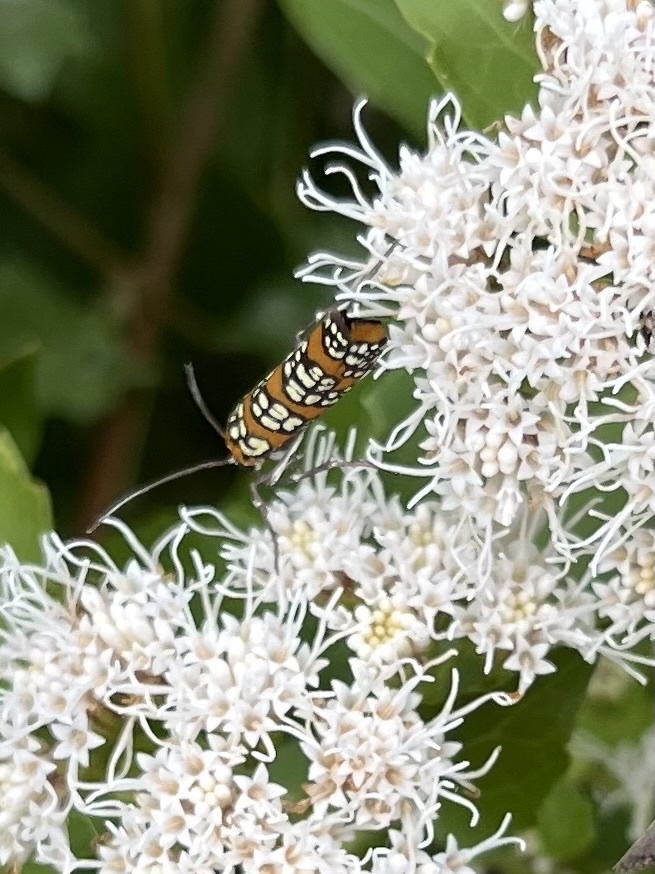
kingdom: Animalia
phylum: Arthropoda
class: Insecta
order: Lepidoptera
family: Attevidae
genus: Atteva
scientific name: Atteva punctella
